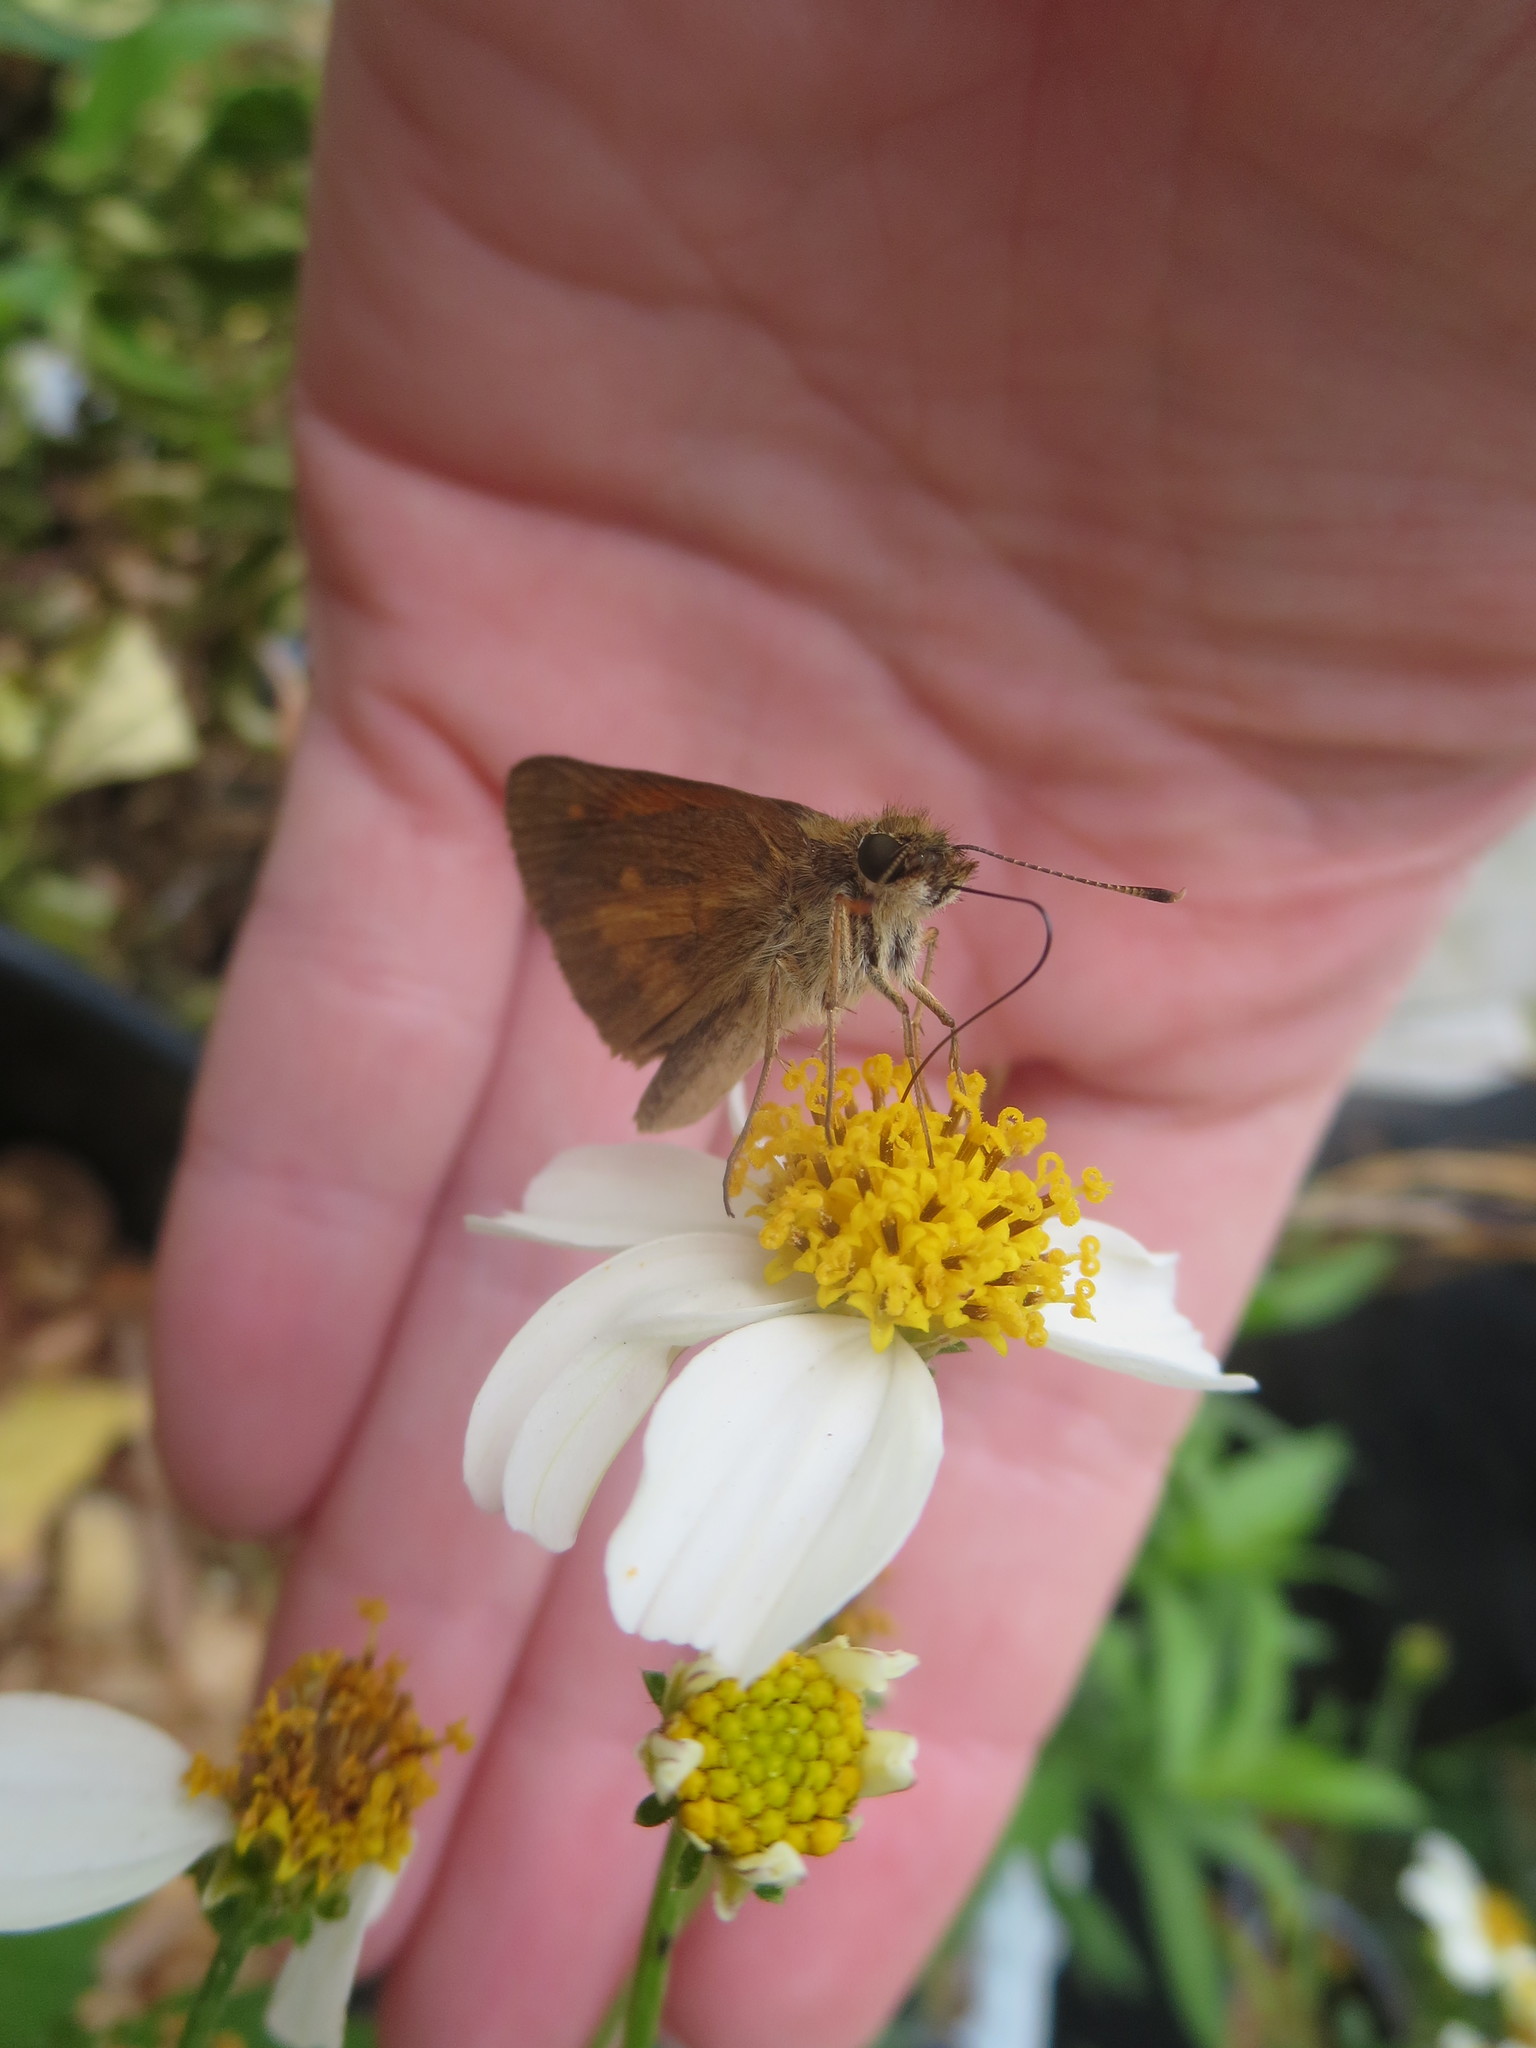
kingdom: Plantae
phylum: Tracheophyta
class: Magnoliopsida
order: Asterales
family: Asteraceae
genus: Bidens
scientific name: Bidens alba
